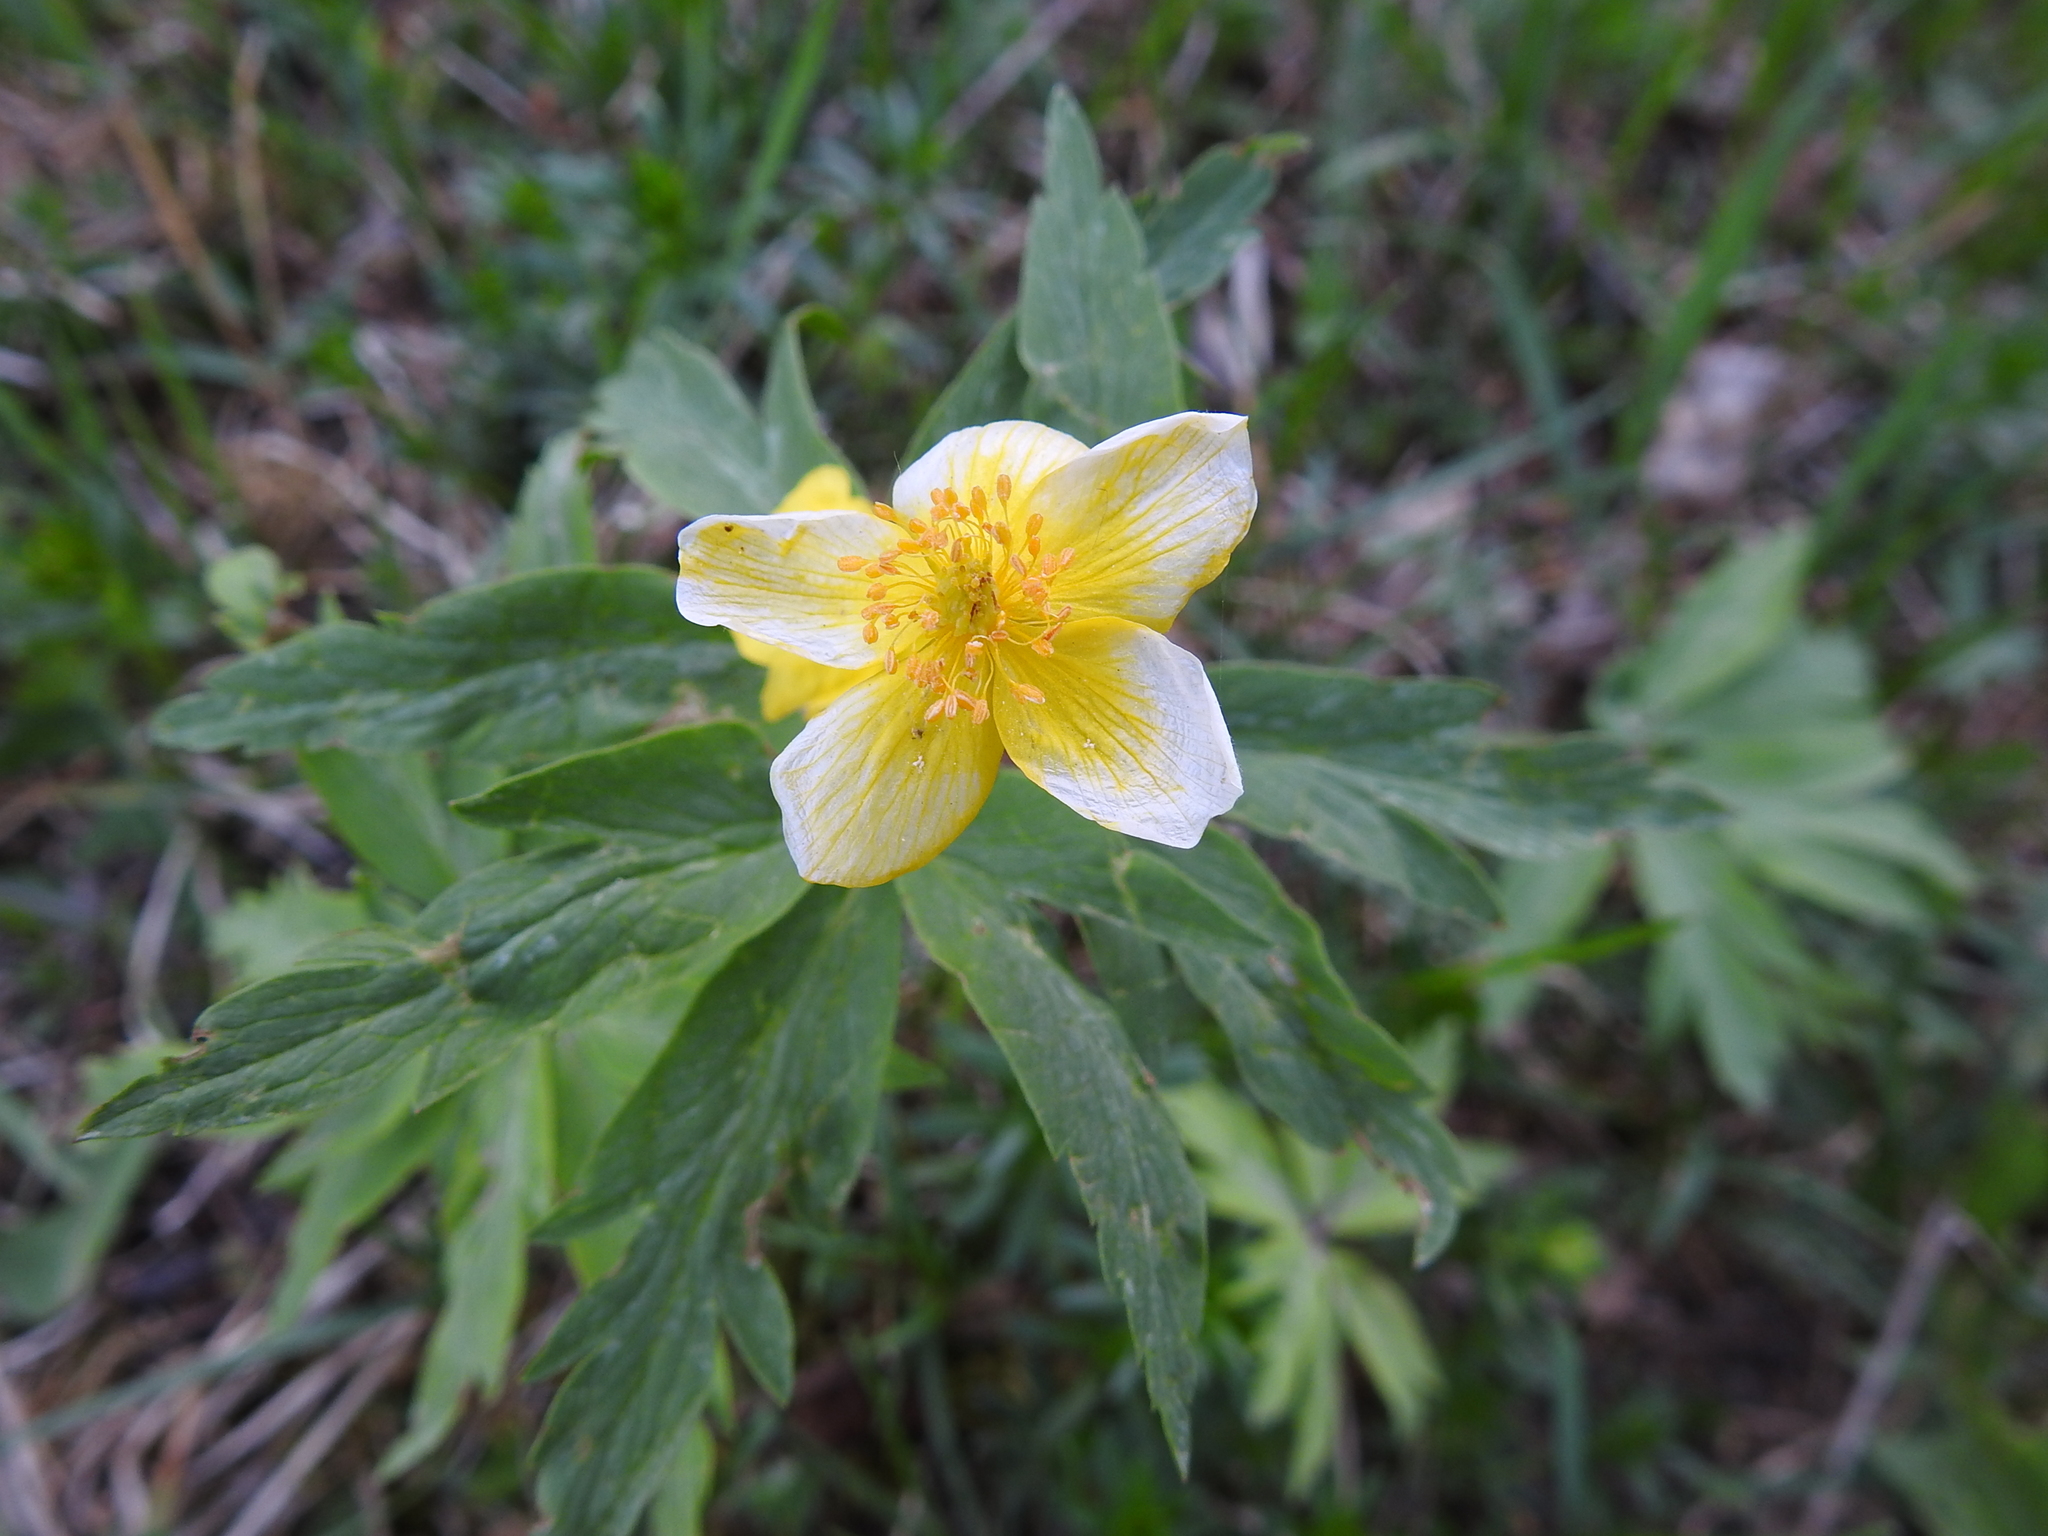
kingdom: Plantae
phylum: Tracheophyta
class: Magnoliopsida
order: Ranunculales
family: Ranunculaceae
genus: Anemone
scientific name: Anemone ranunculoides
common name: Yellow anemone
